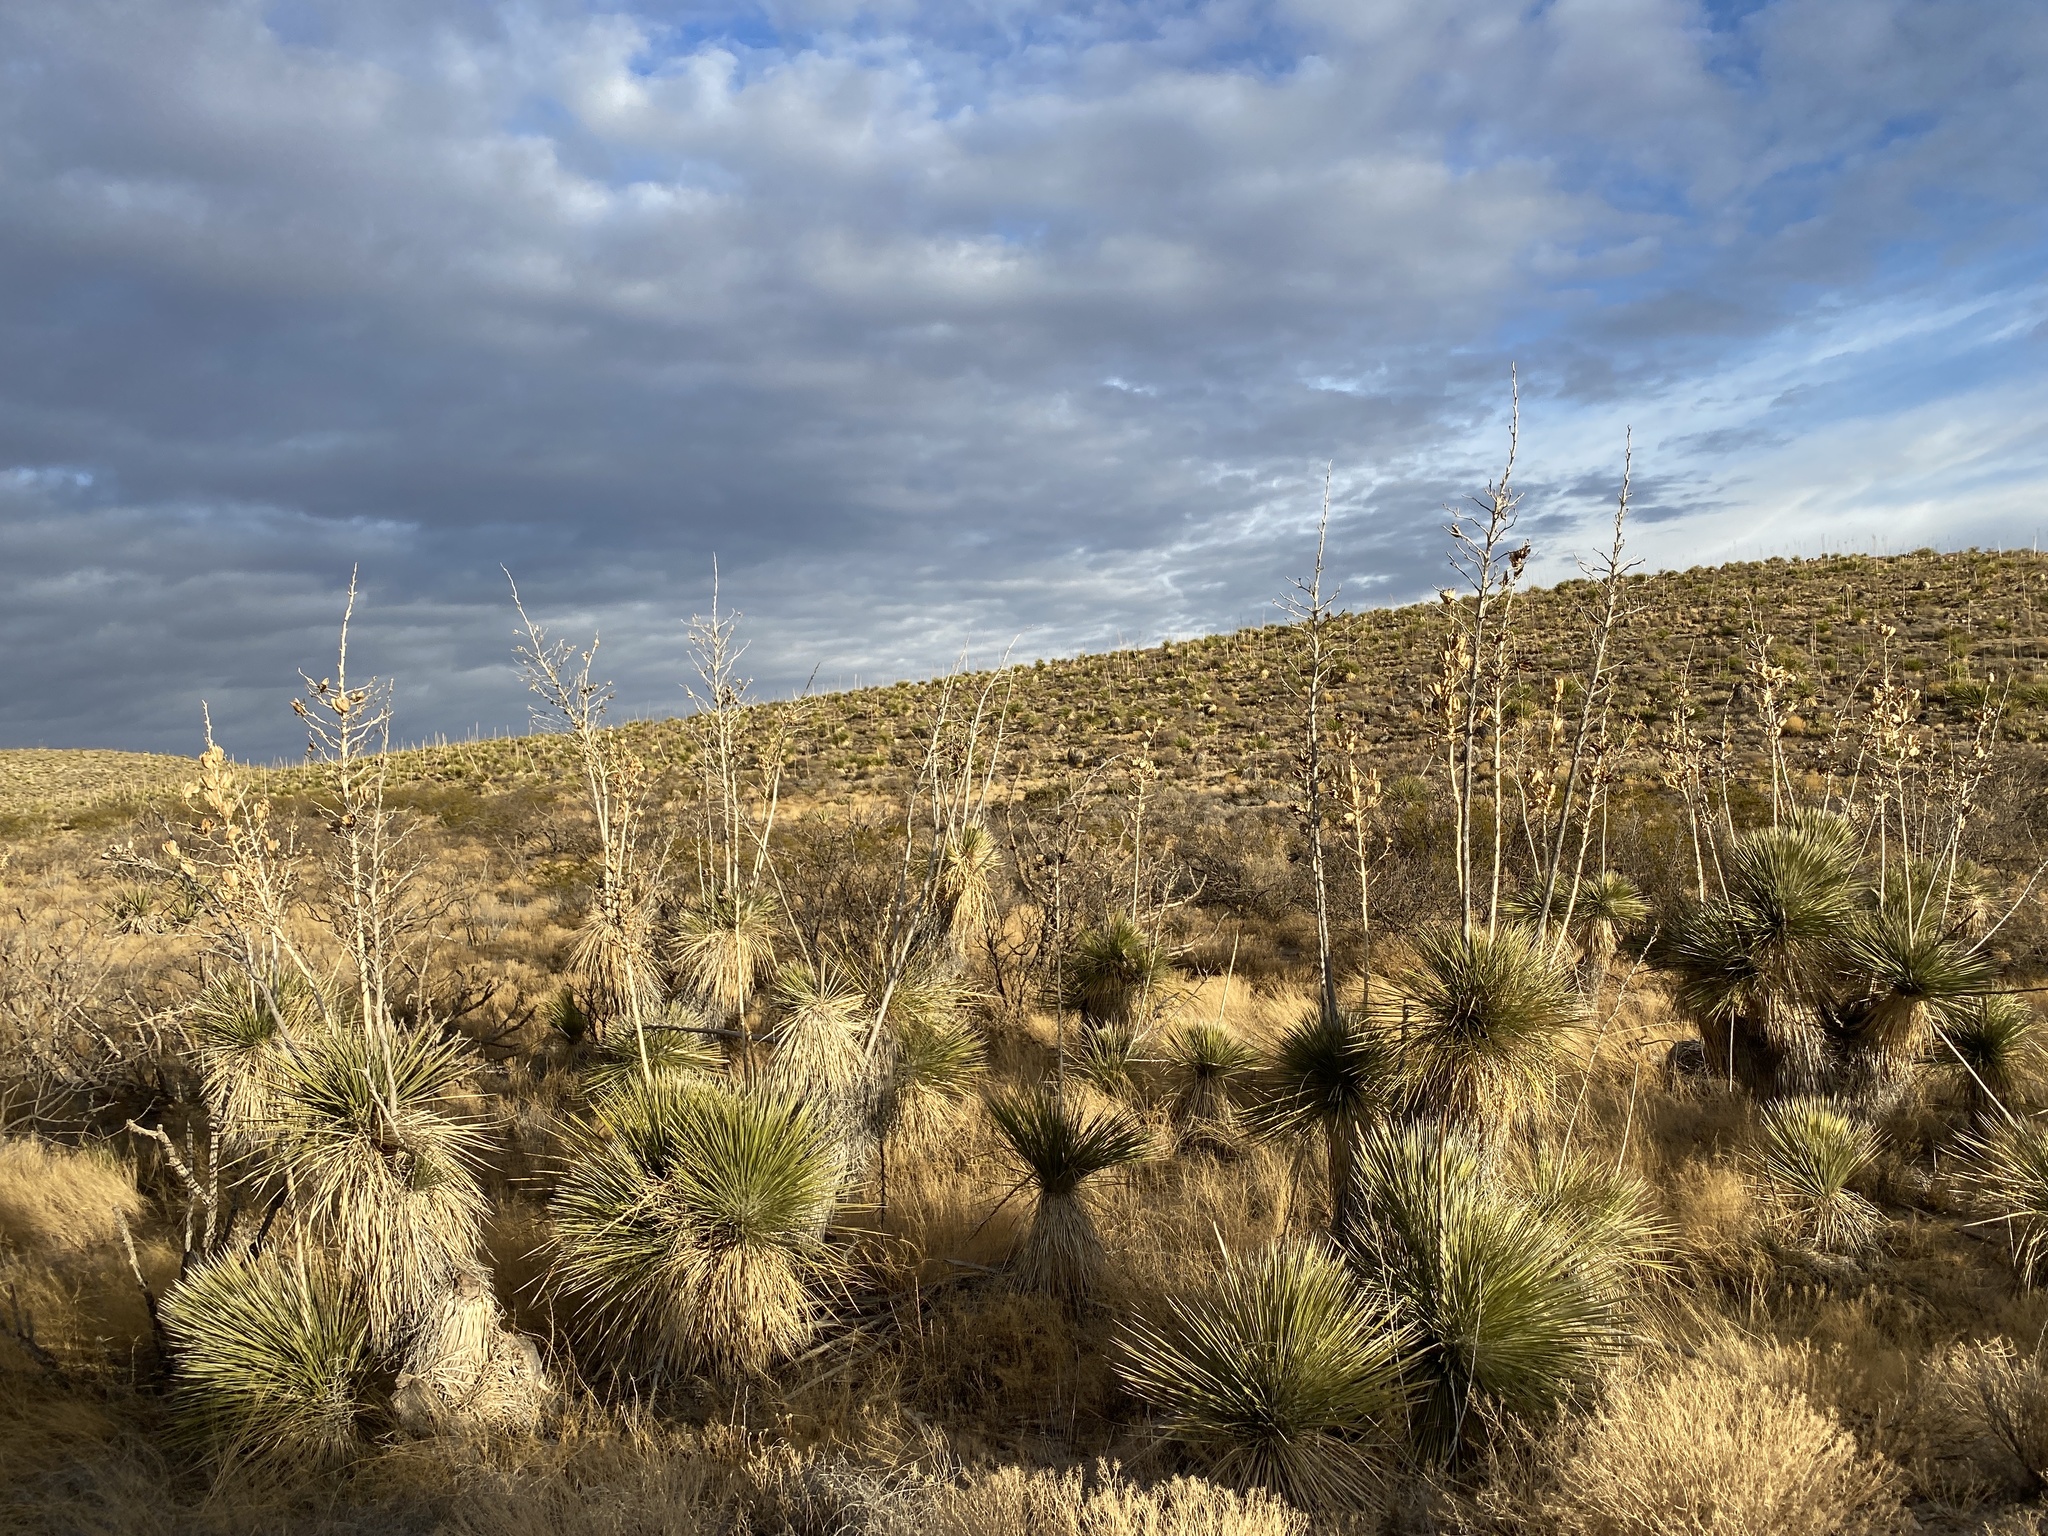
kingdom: Plantae
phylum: Tracheophyta
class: Liliopsida
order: Asparagales
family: Asparagaceae
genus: Yucca
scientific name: Yucca elata
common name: Palmella
